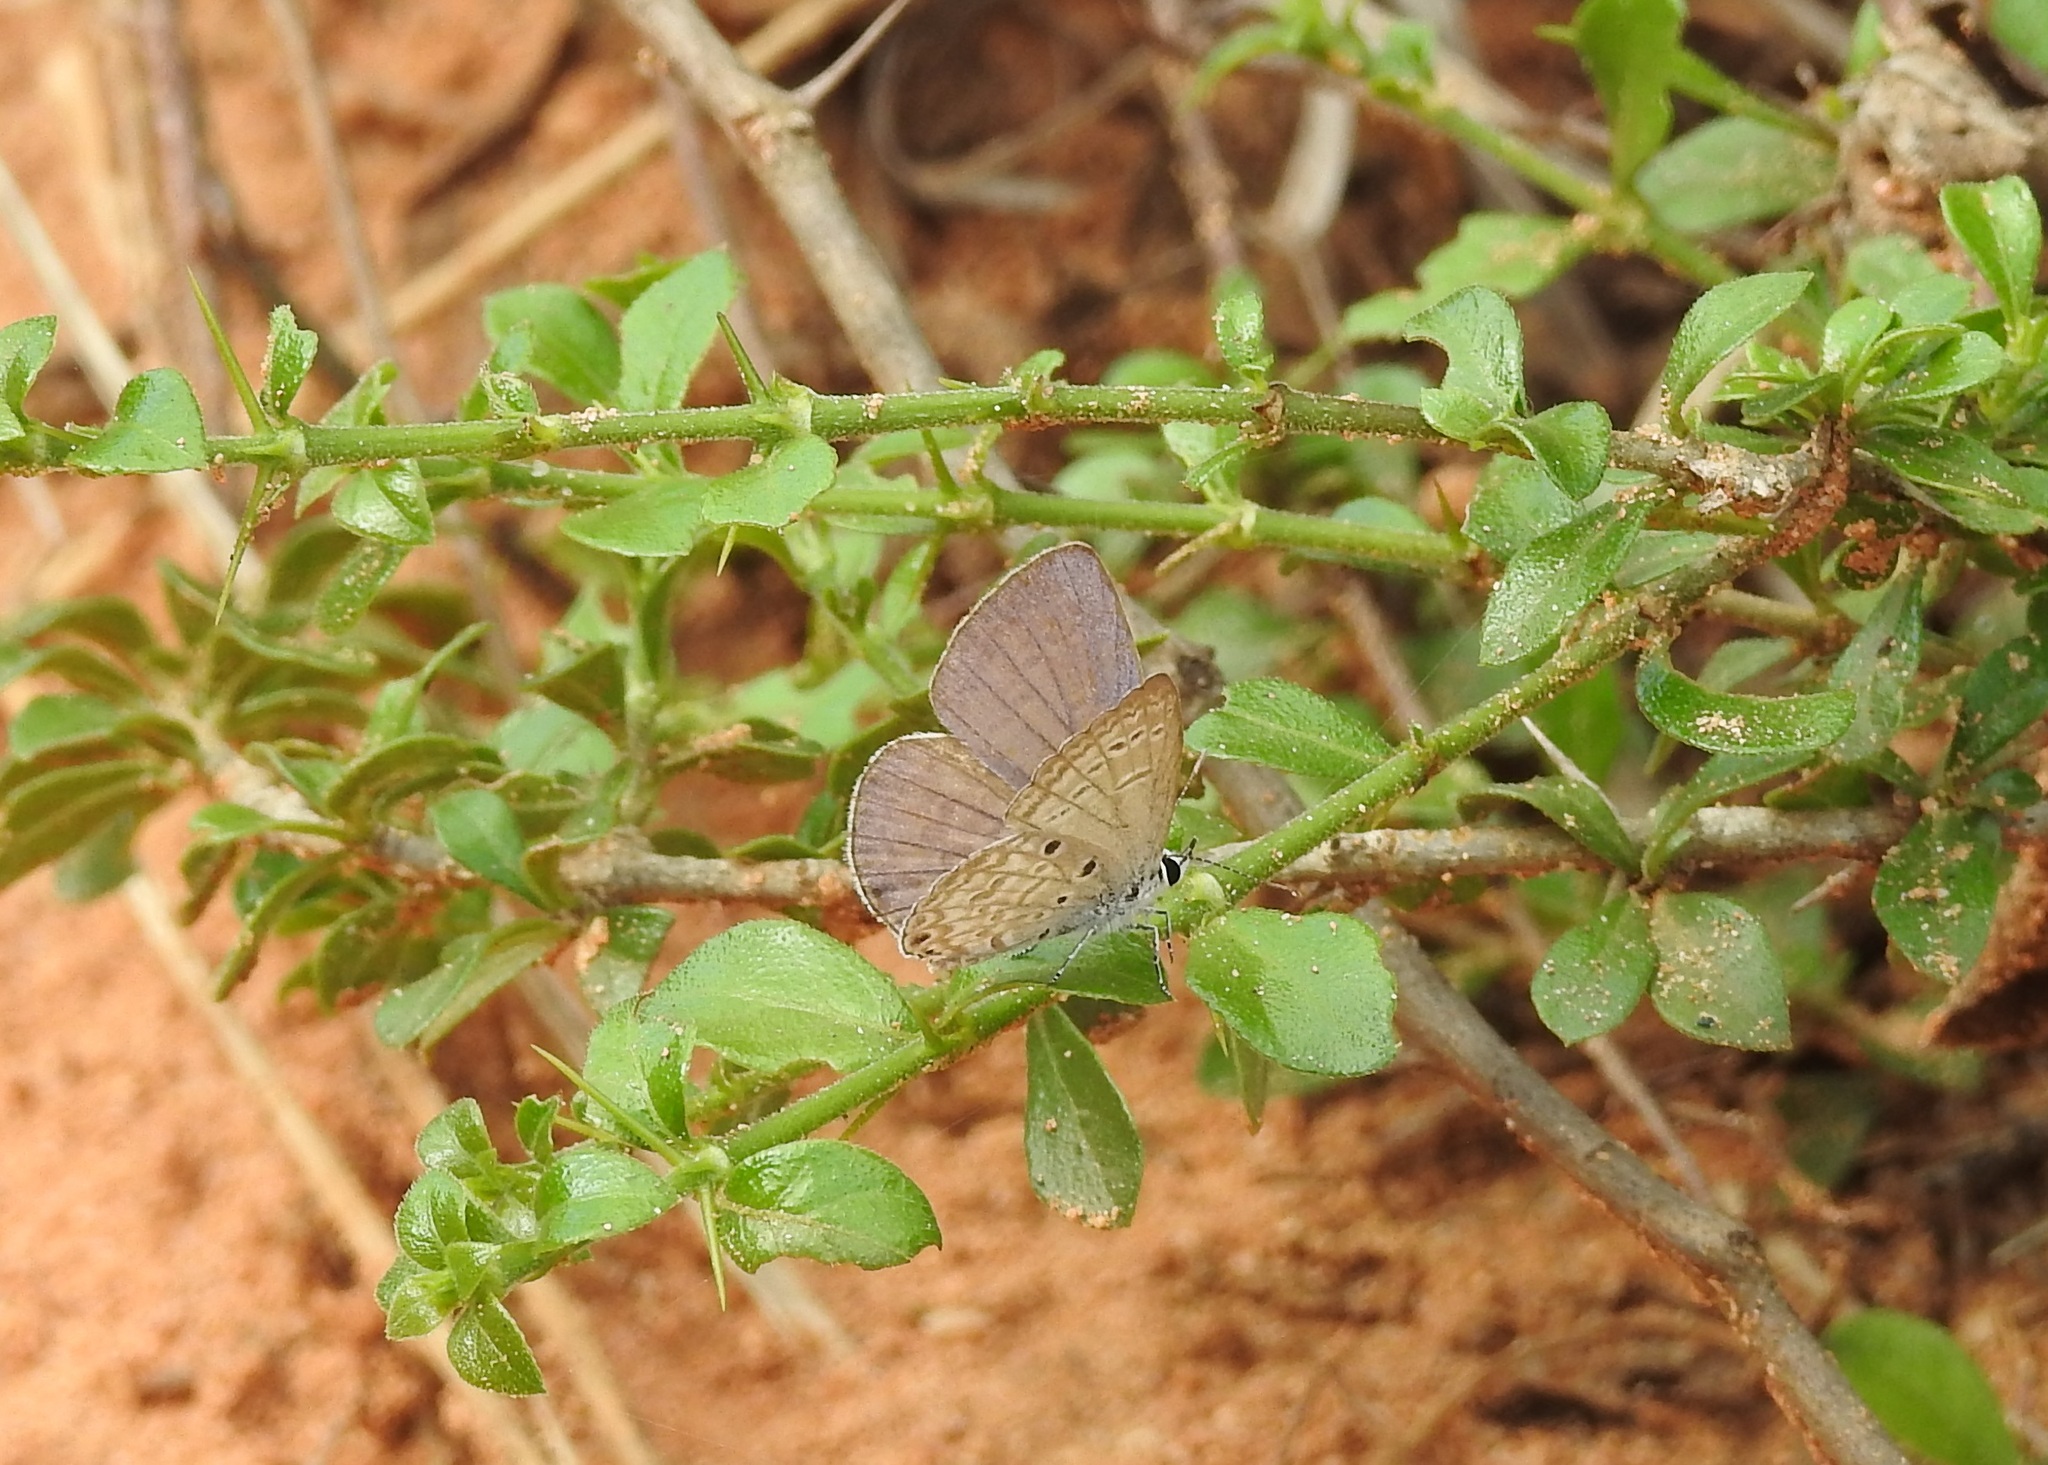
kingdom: Animalia
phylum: Arthropoda
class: Insecta
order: Lepidoptera
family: Lycaenidae
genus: Chilades
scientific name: Chilades laius
